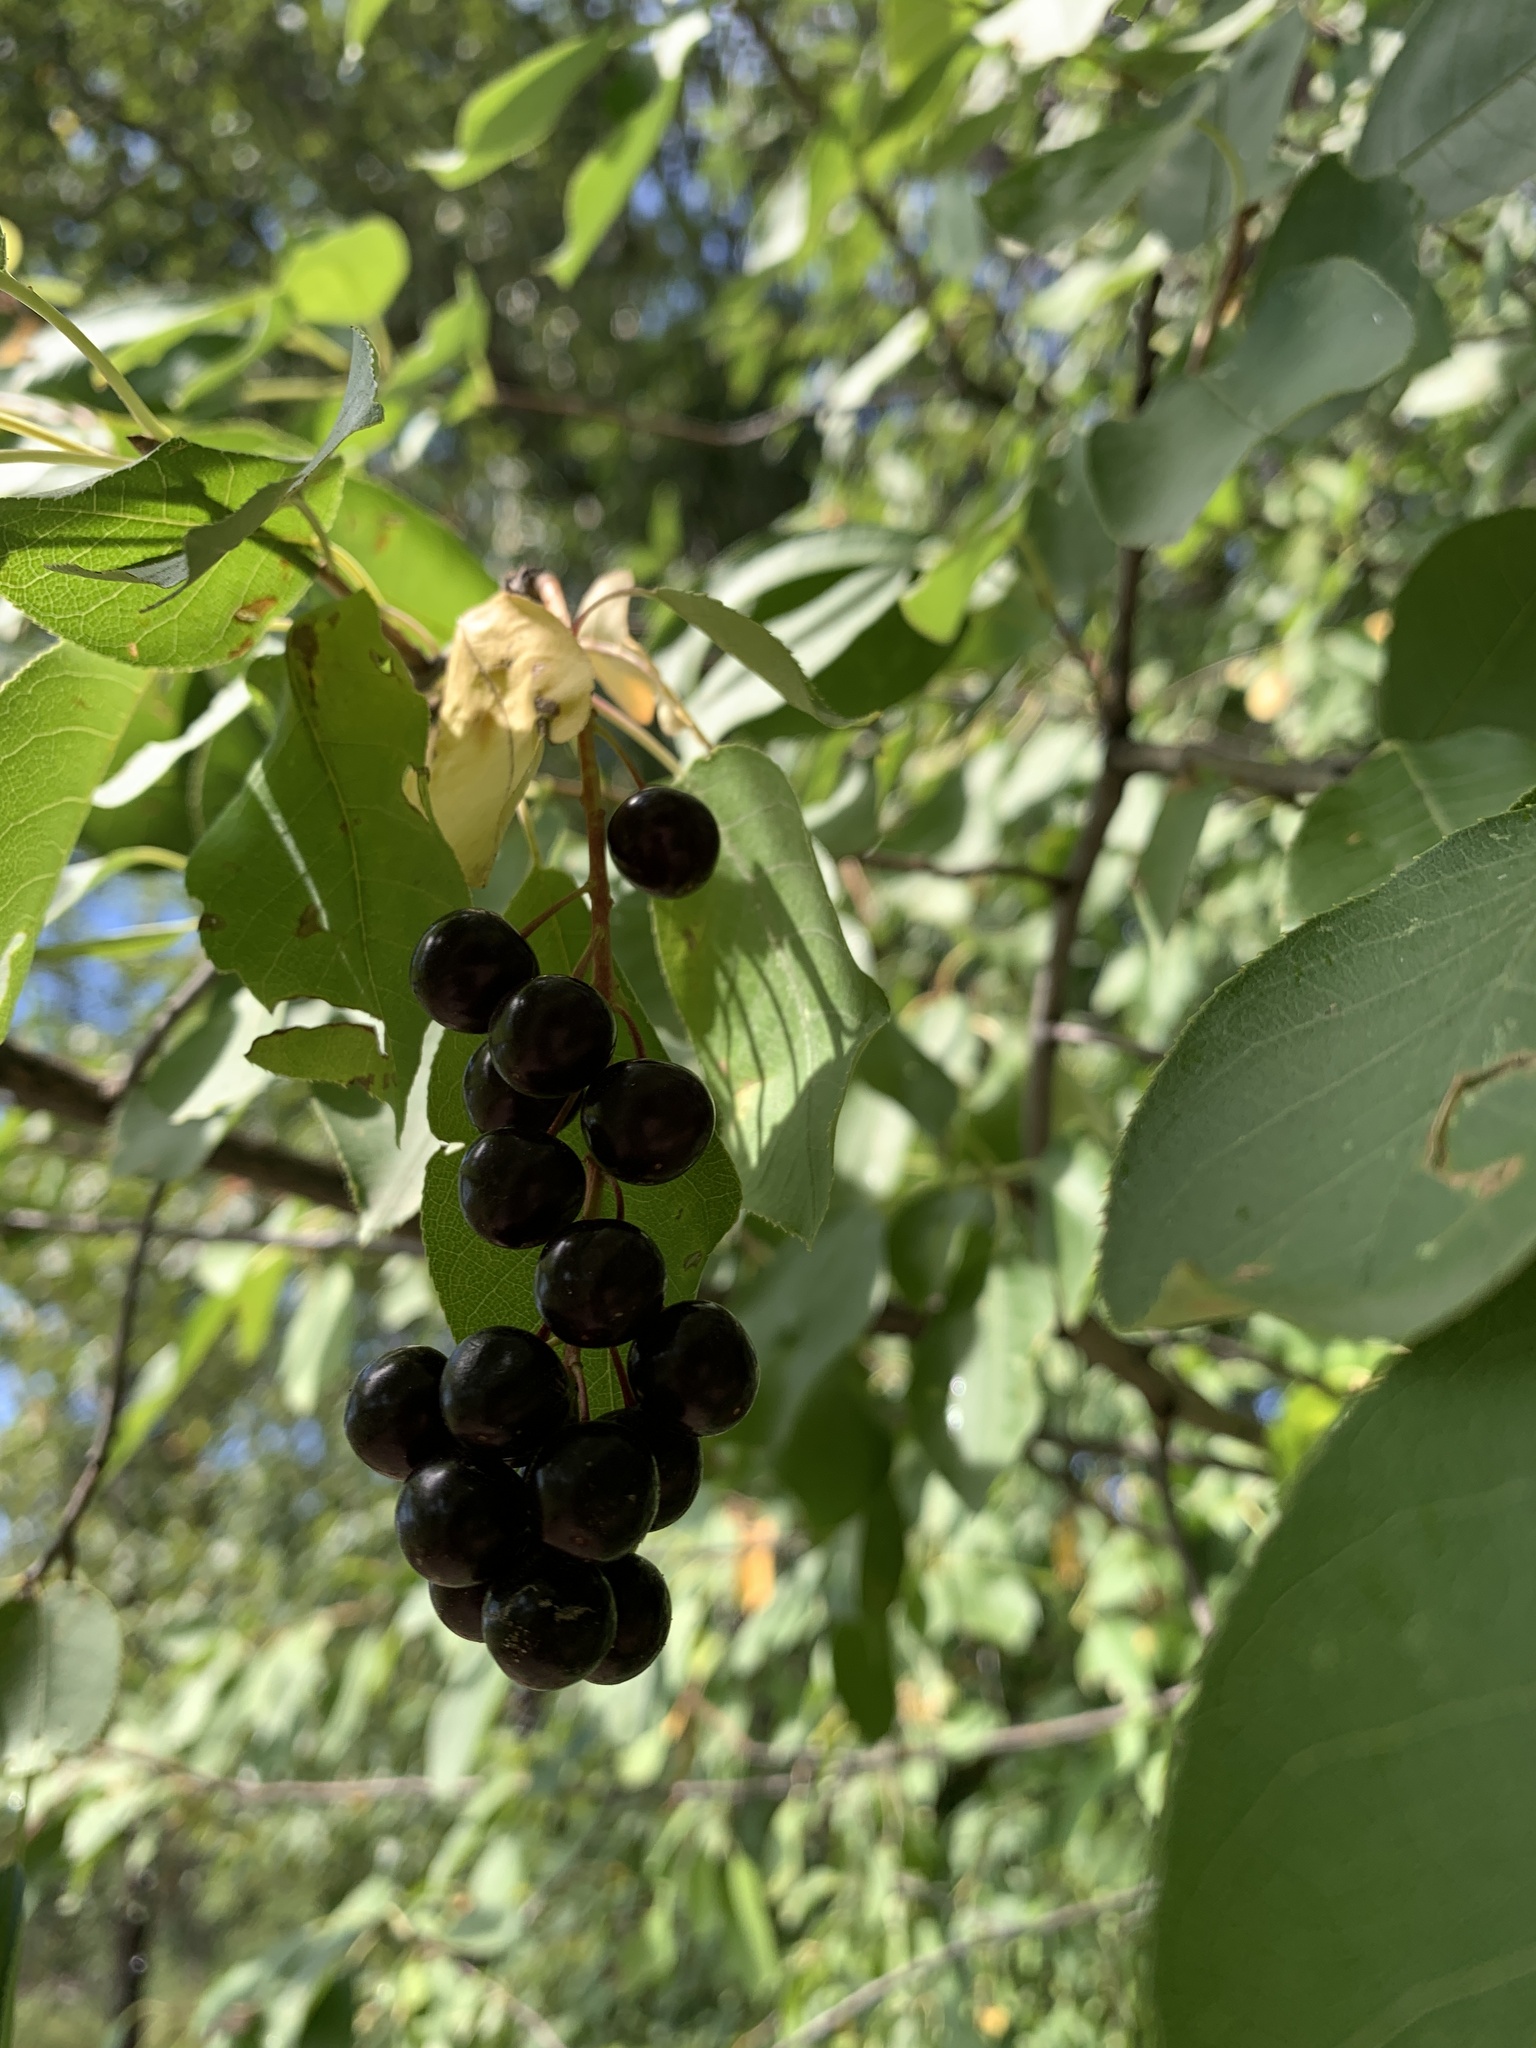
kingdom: Plantae
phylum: Tracheophyta
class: Magnoliopsida
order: Rosales
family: Rosaceae
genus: Prunus
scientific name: Prunus virginiana
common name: Chokecherry
